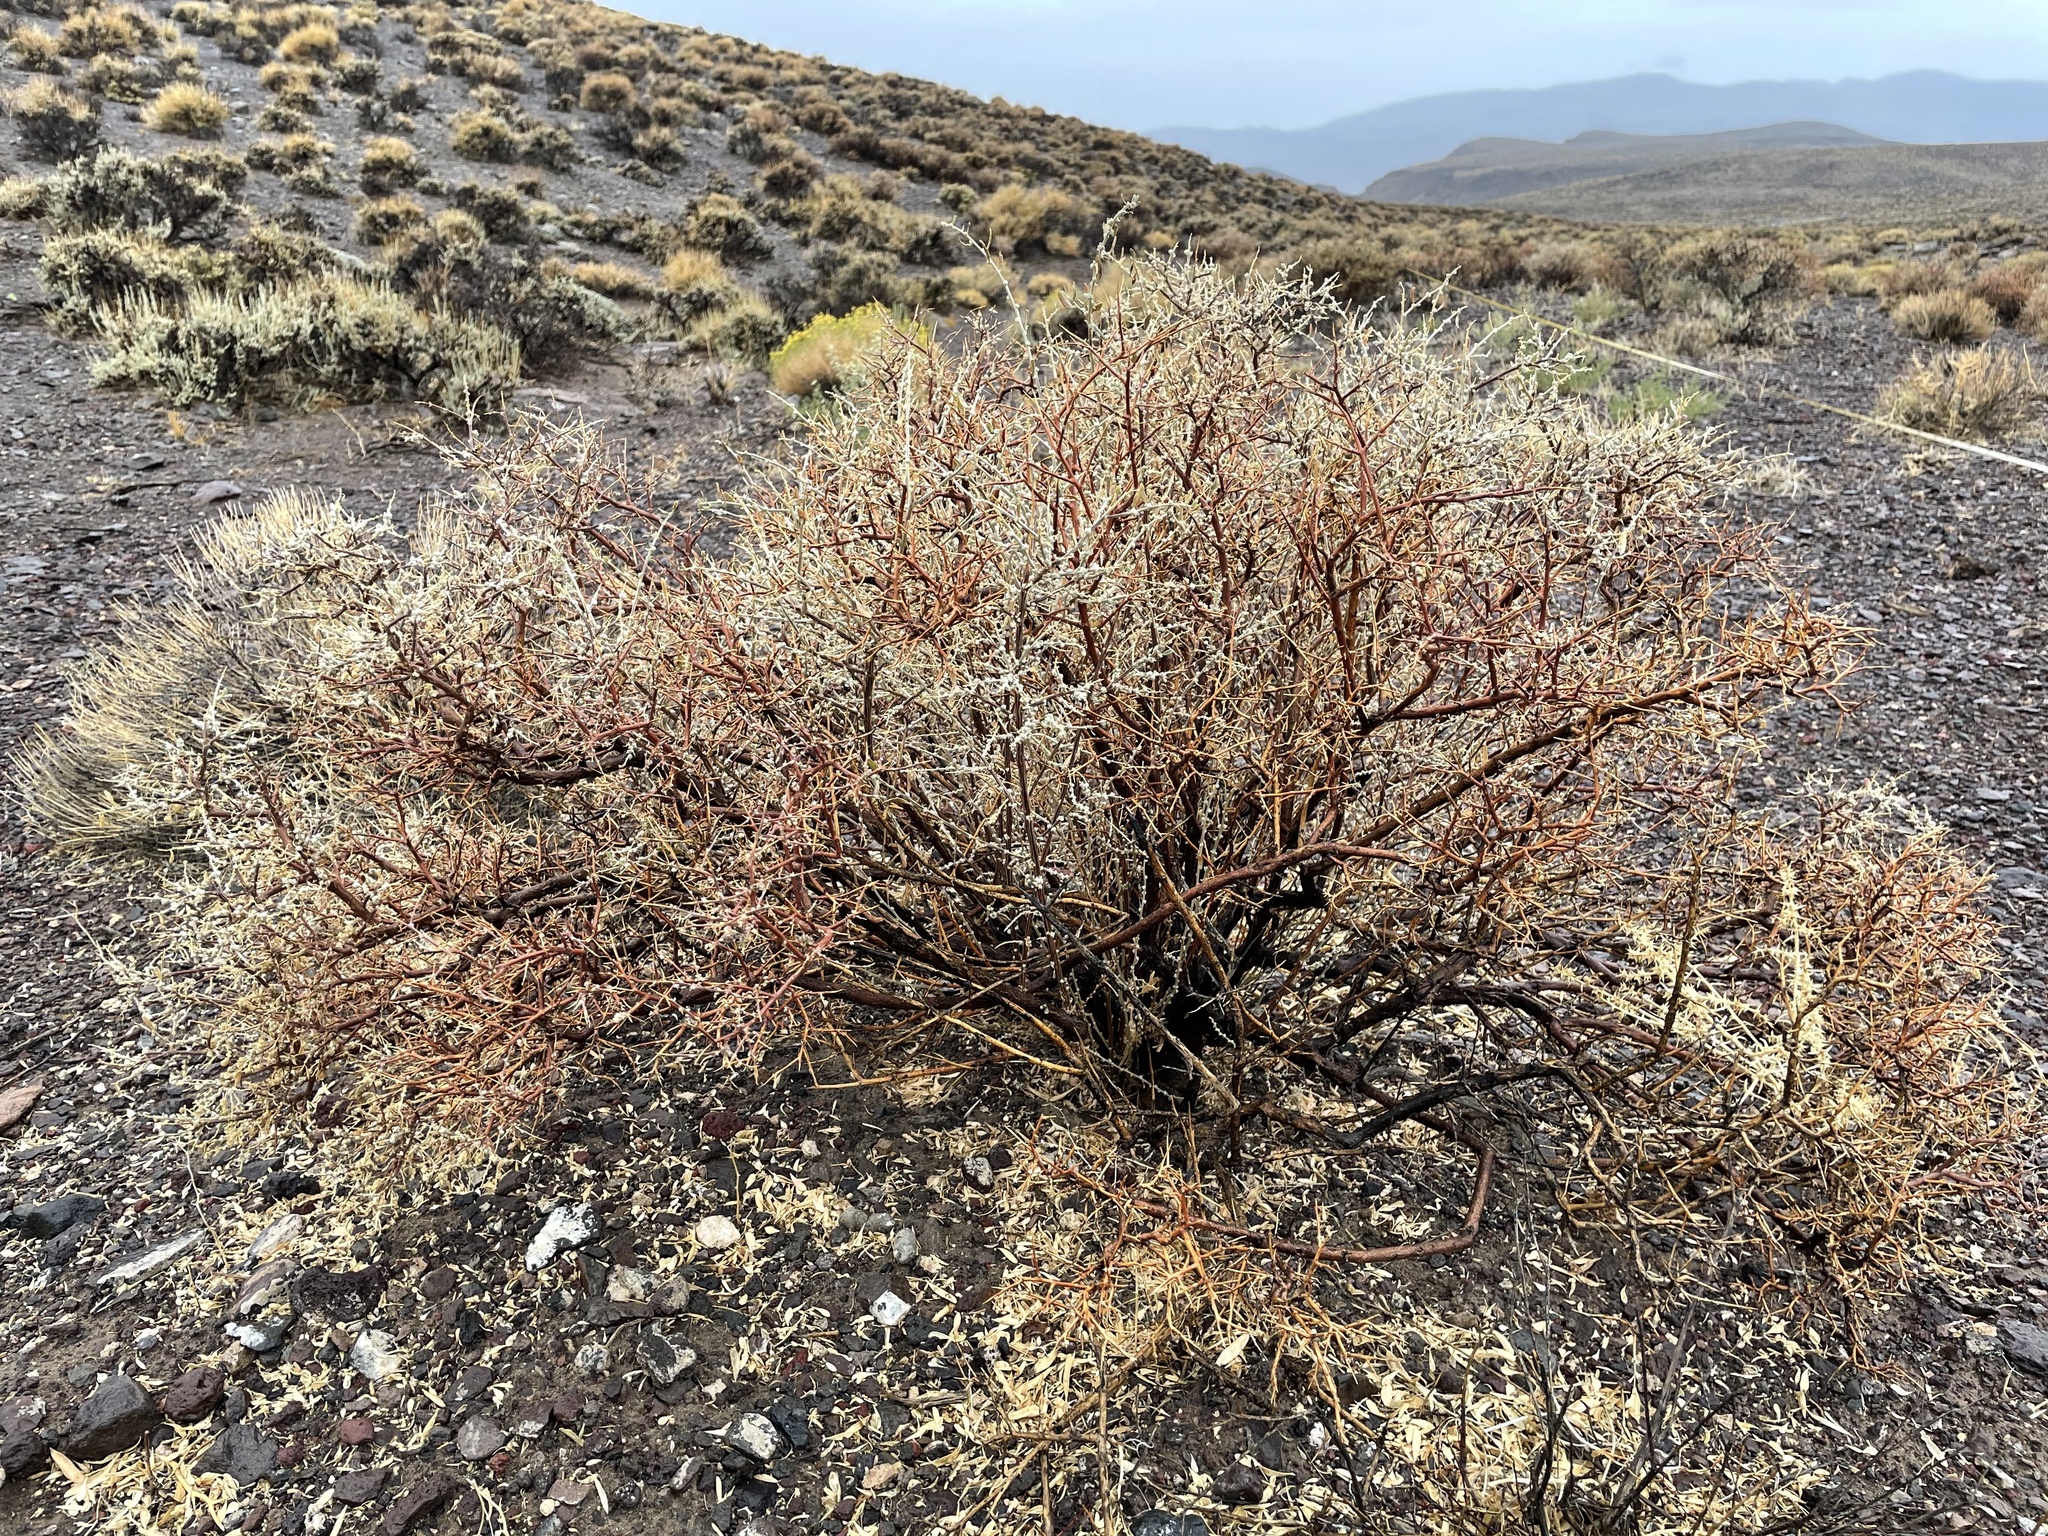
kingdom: Plantae
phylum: Tracheophyta
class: Magnoliopsida
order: Caryophyllales
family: Amaranthaceae
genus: Grayia
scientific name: Grayia spinosa
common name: Spiny hopsage
